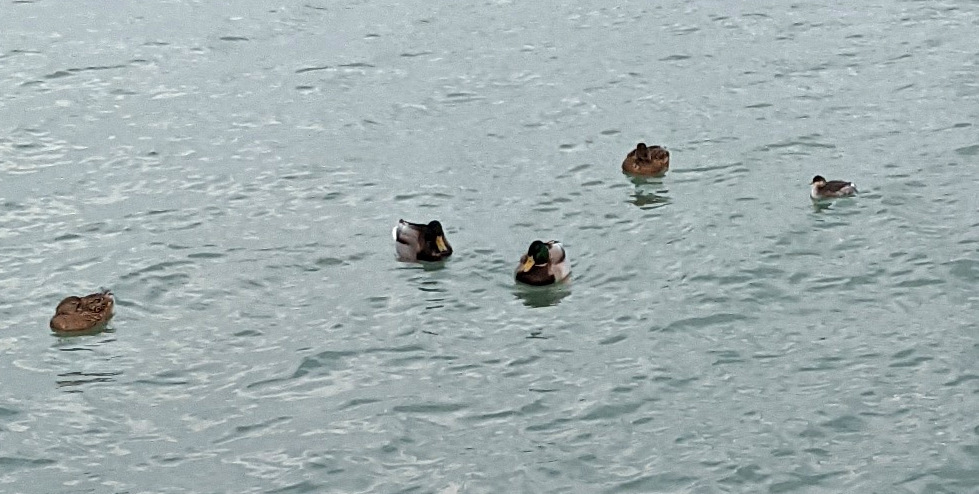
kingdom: Animalia
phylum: Chordata
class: Aves
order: Anseriformes
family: Anatidae
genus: Anas
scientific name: Anas platyrhynchos
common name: Mallard
